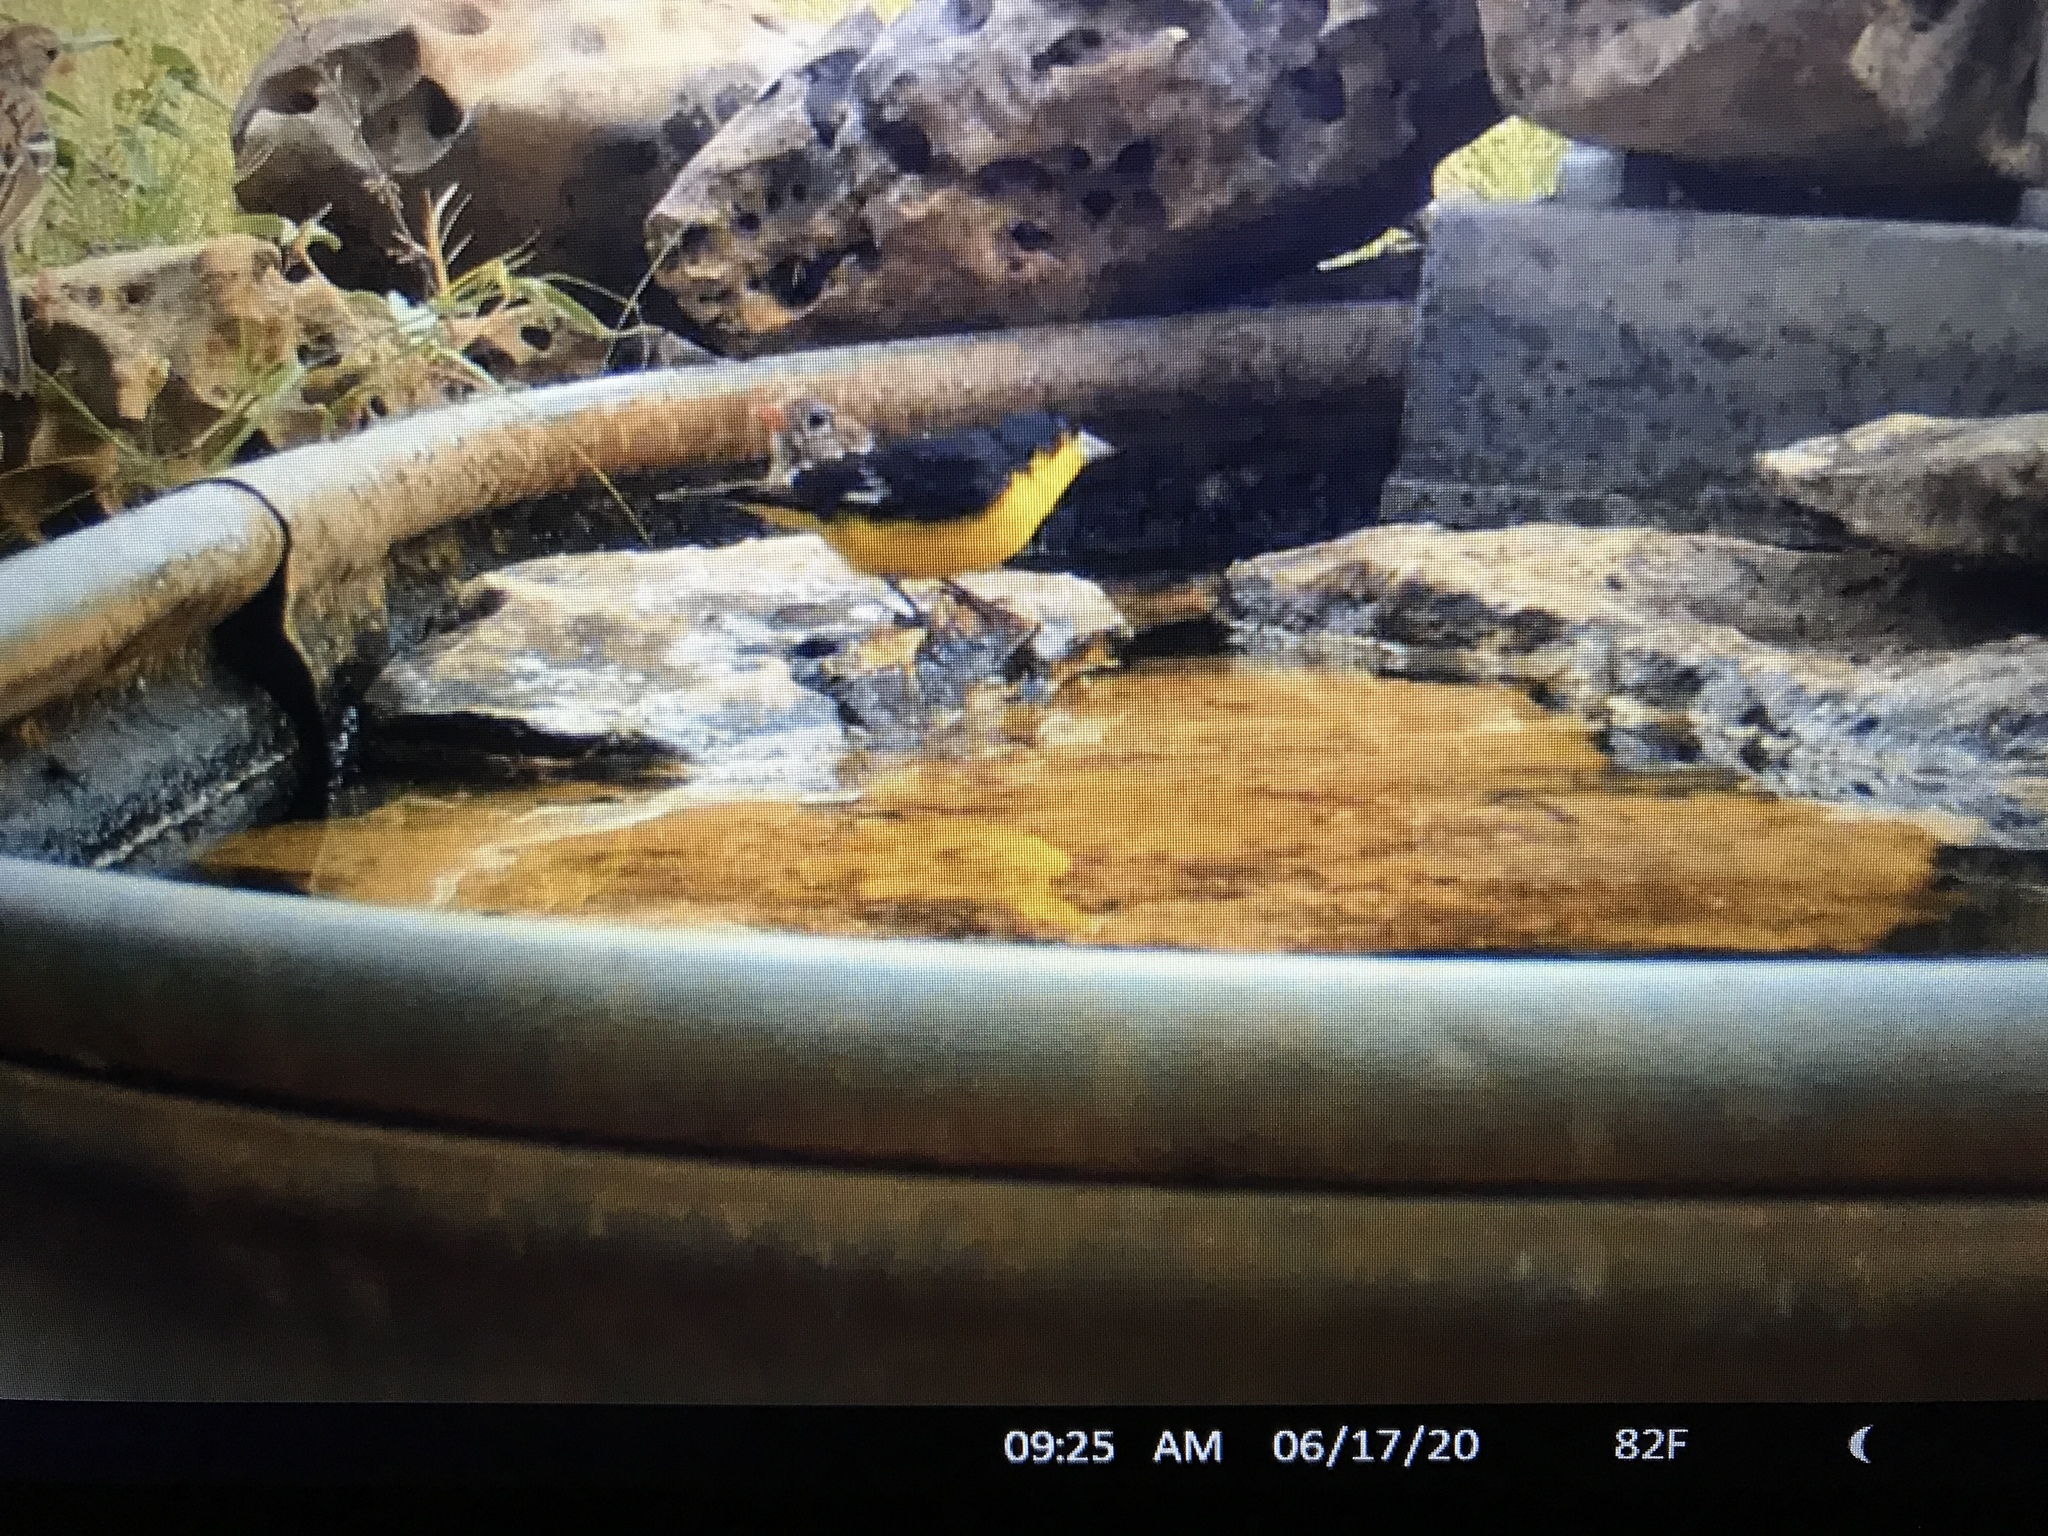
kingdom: Animalia
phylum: Chordata
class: Aves
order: Passeriformes
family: Fringillidae
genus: Spinus
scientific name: Spinus psaltria
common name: Lesser goldfinch
